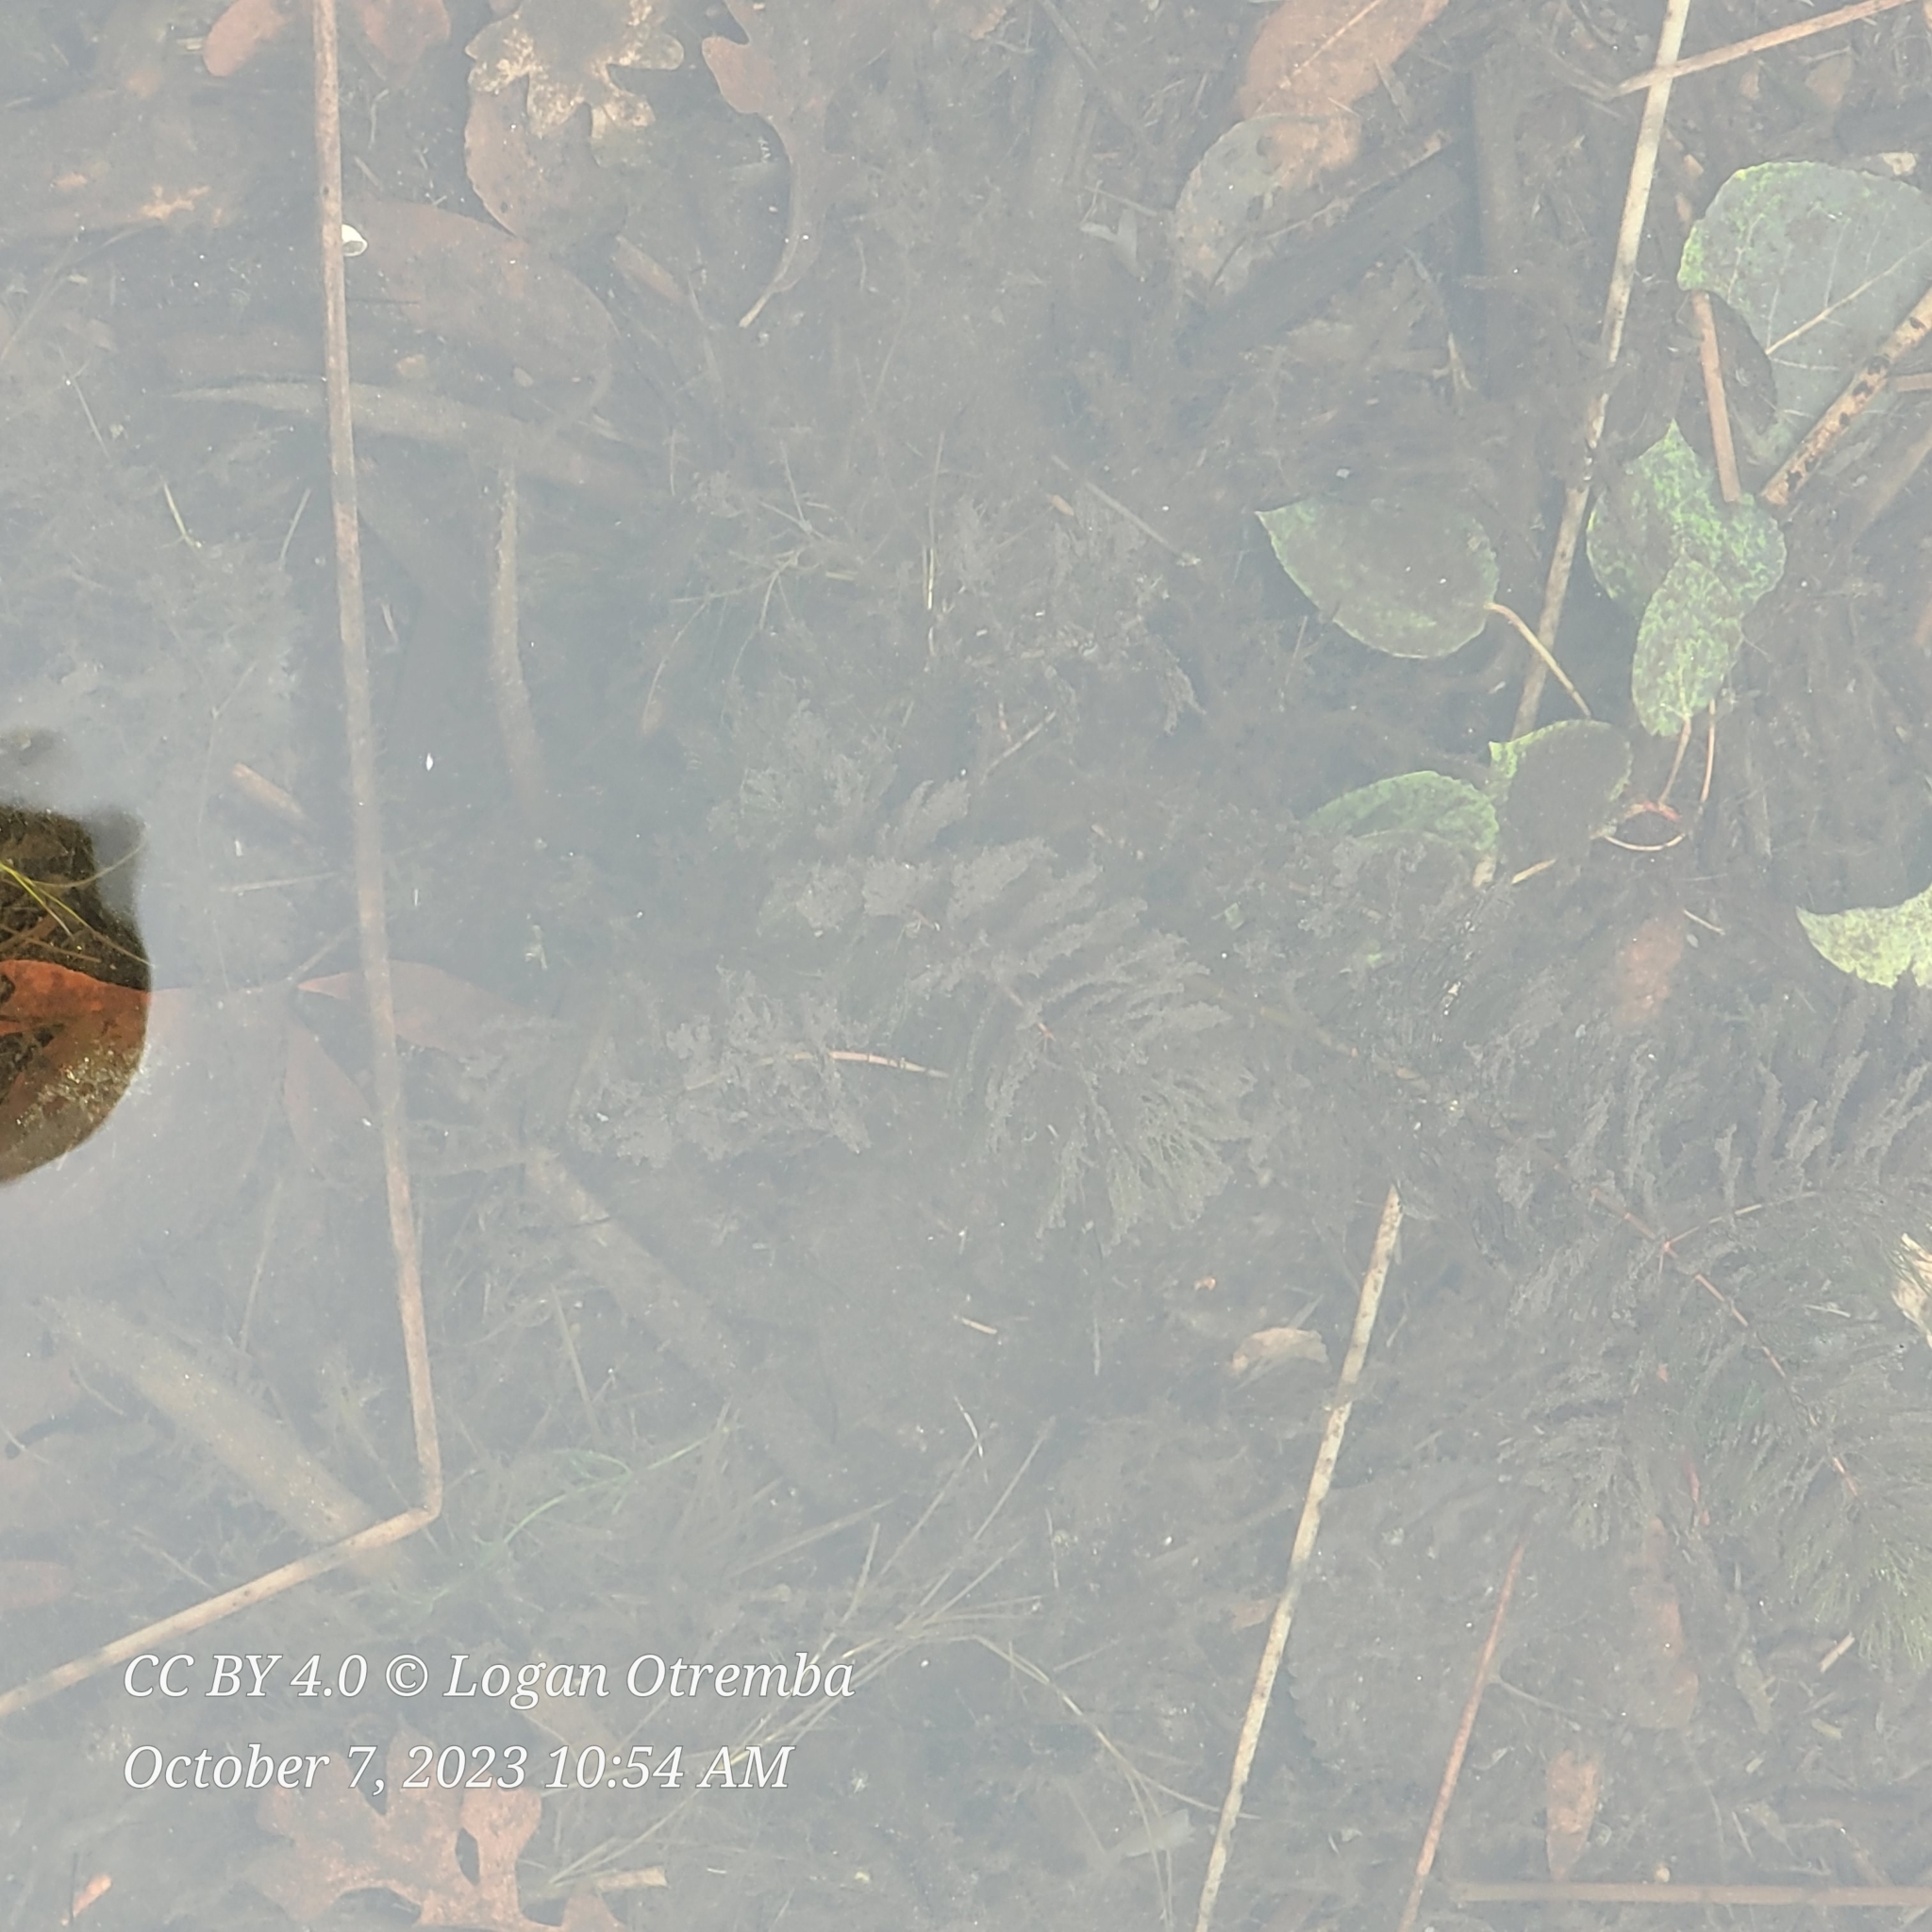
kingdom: Animalia
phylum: Chordata
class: Mammalia
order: Rodentia
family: Castoridae
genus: Castor
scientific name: Castor canadensis
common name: American beaver
